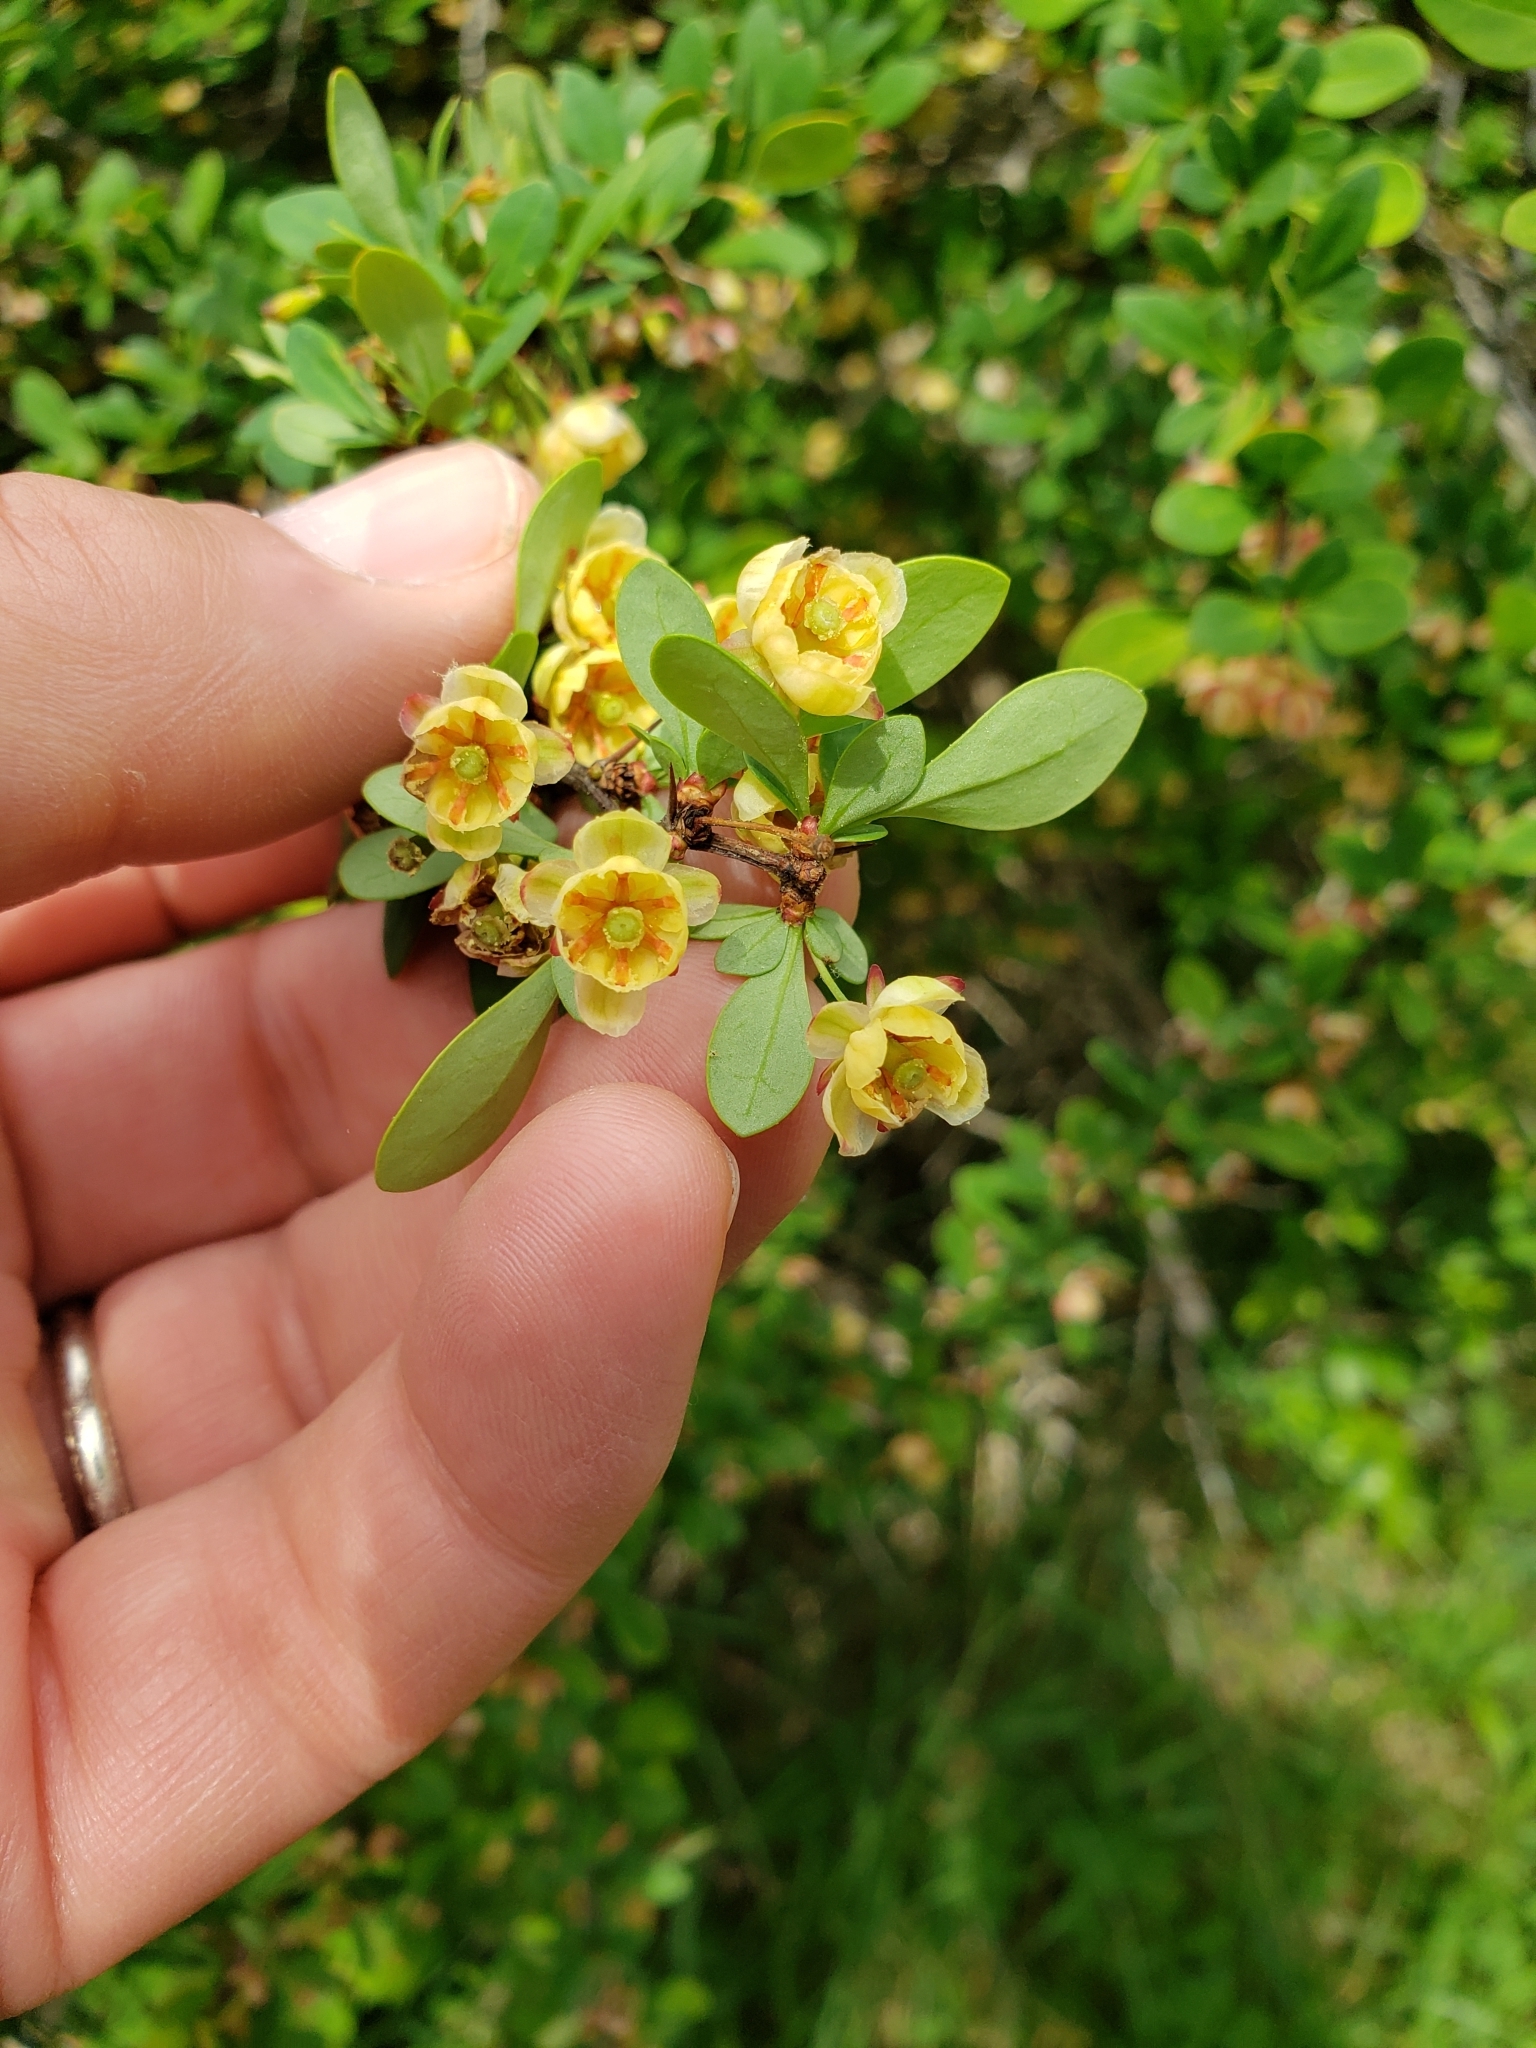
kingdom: Plantae
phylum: Tracheophyta
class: Magnoliopsida
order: Ranunculales
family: Berberidaceae
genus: Berberis
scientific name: Berberis thunbergii
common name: Japanese barberry
